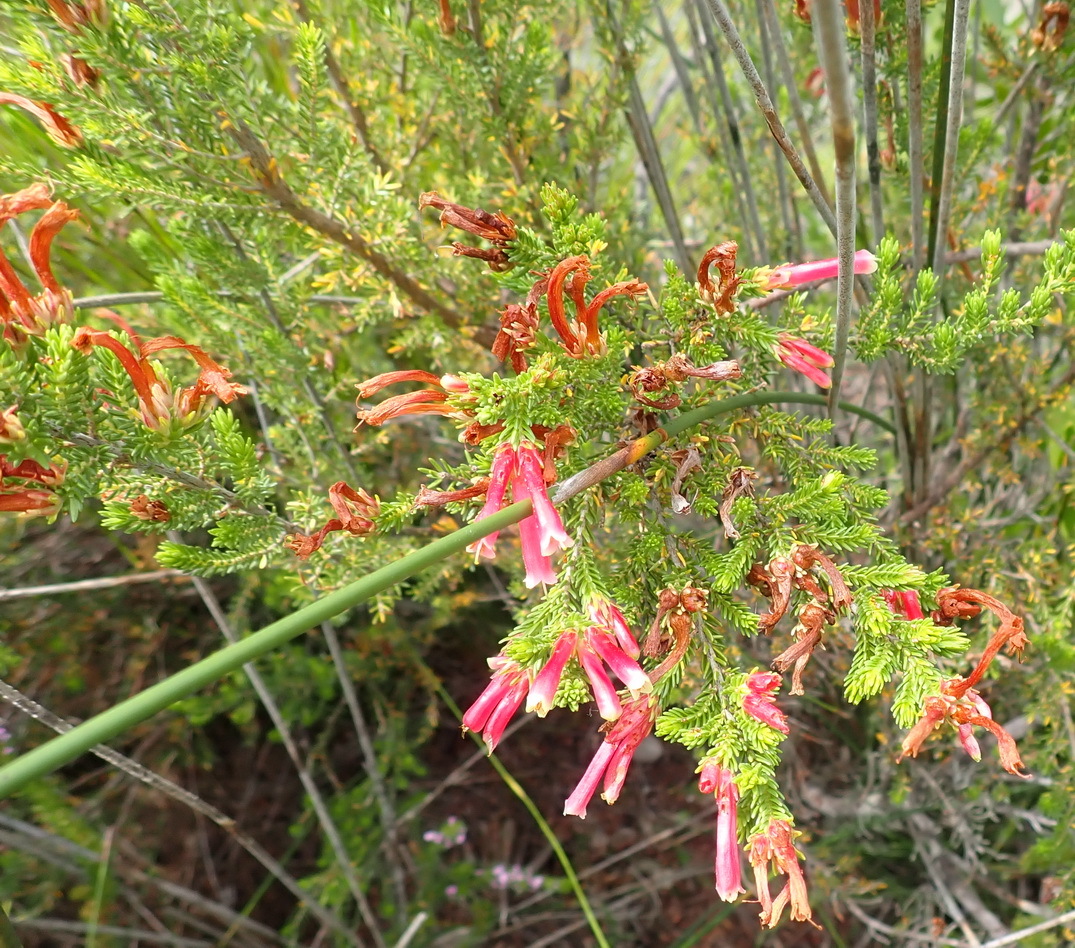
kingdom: Plantae
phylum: Tracheophyta
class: Magnoliopsida
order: Ericales
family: Ericaceae
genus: Erica
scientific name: Erica discolor
